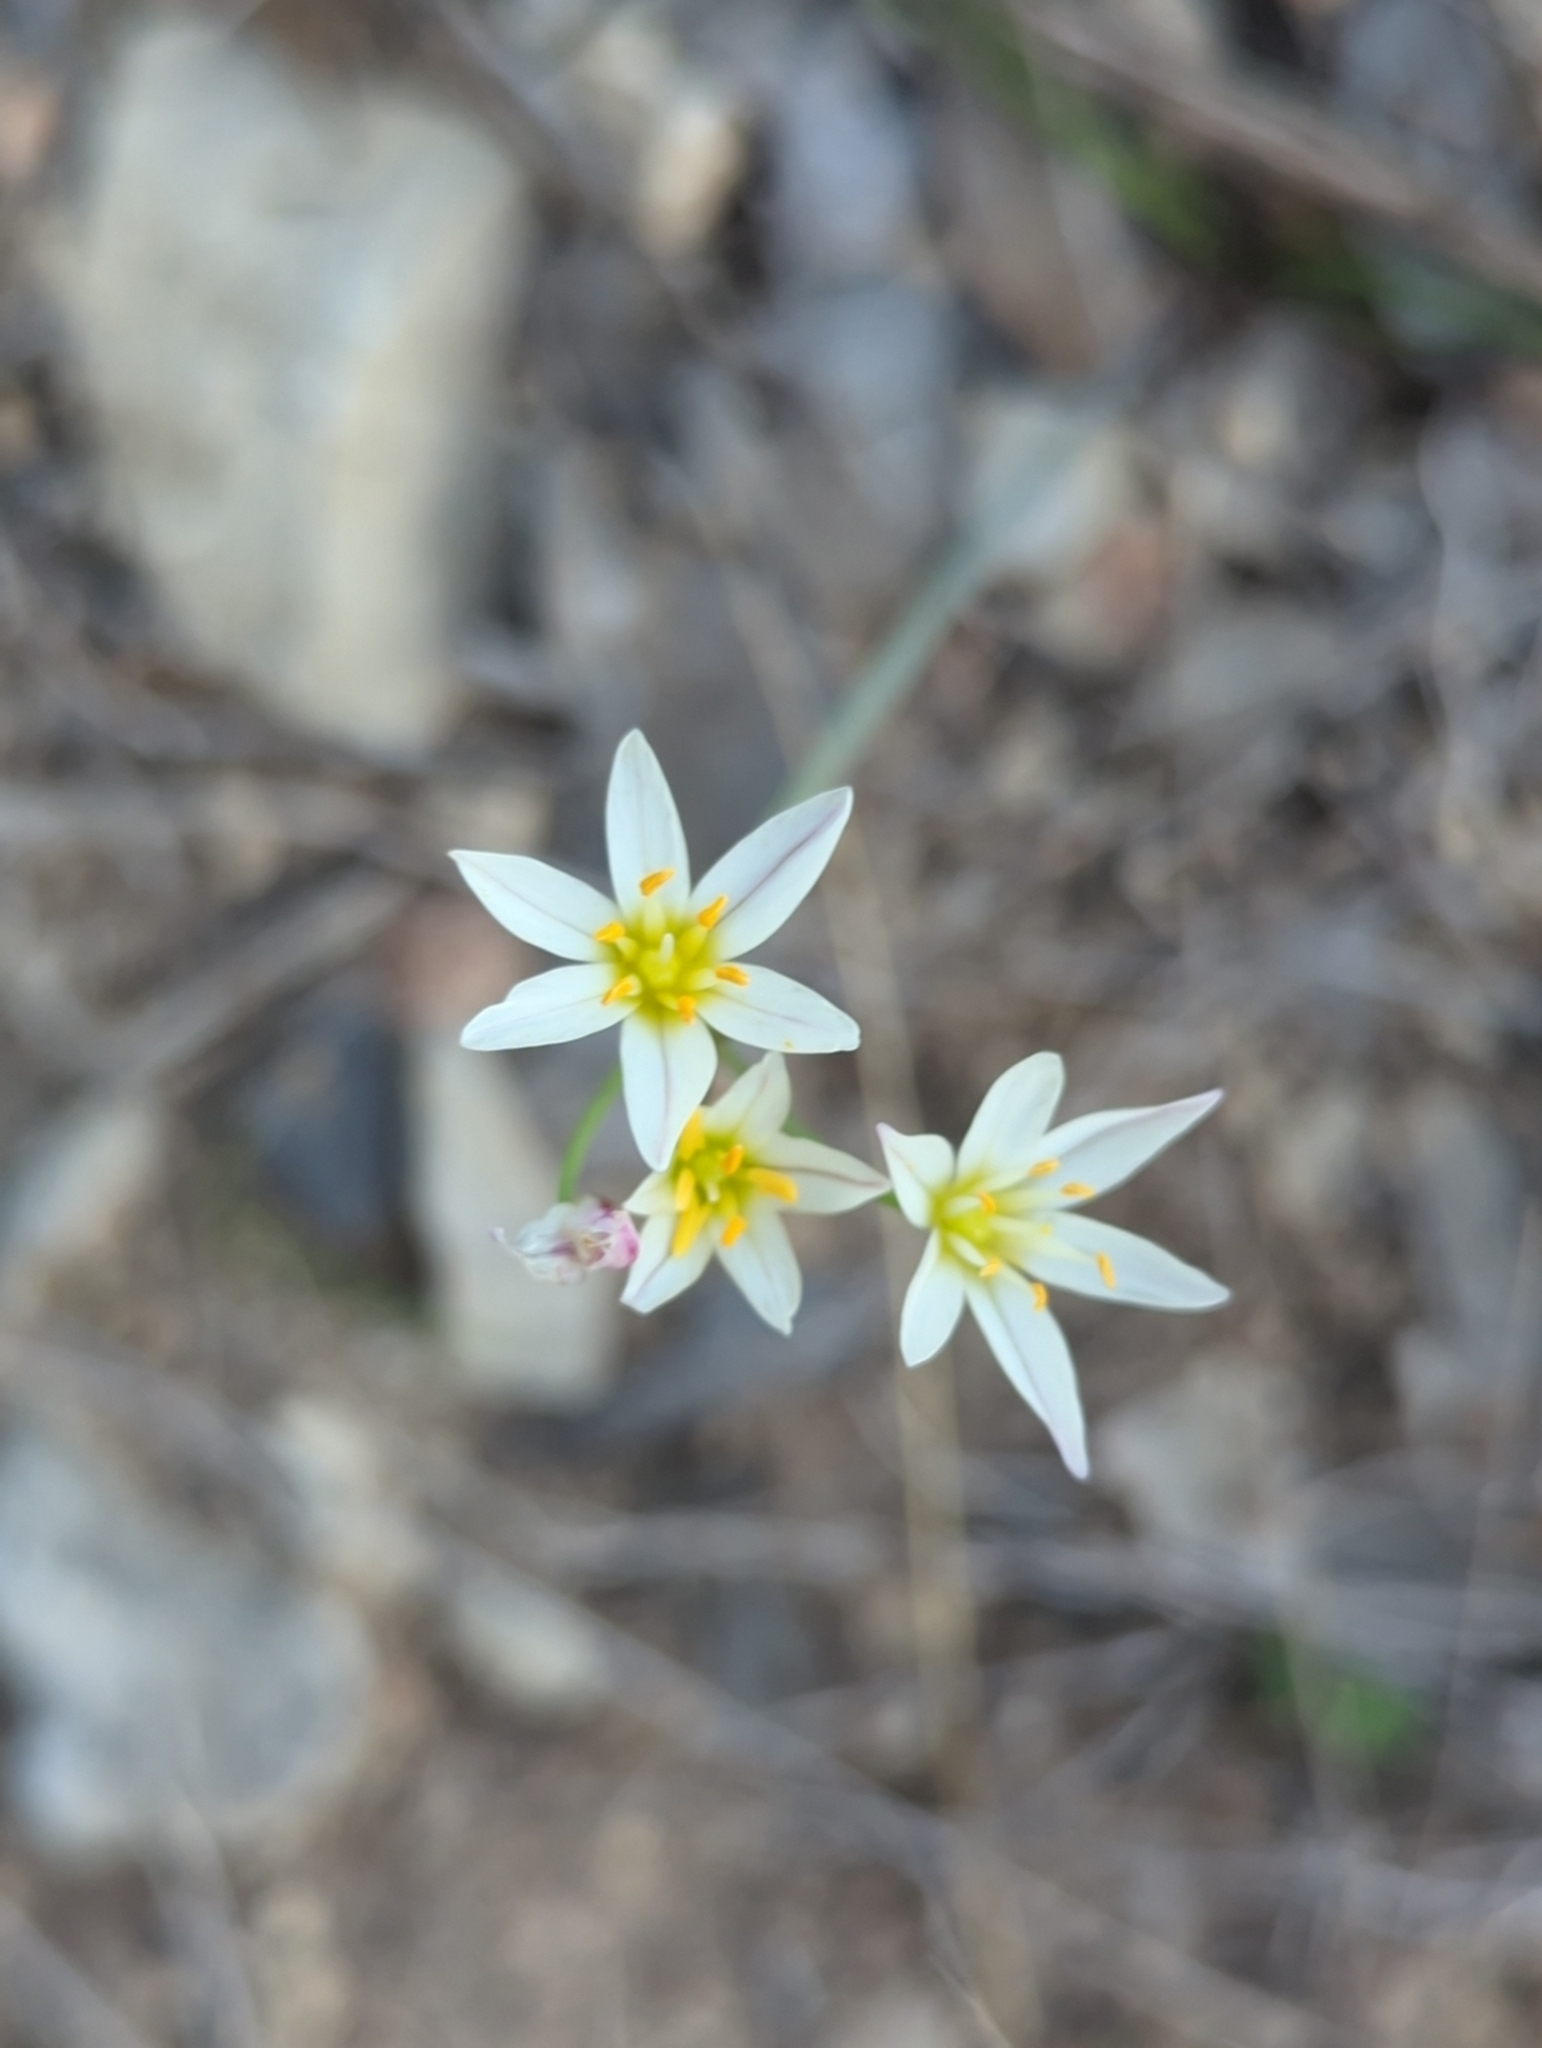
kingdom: Plantae
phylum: Tracheophyta
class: Liliopsida
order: Asparagales
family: Amaryllidaceae
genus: Nothoscordum
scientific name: Nothoscordum bivalve
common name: Crow-poison
